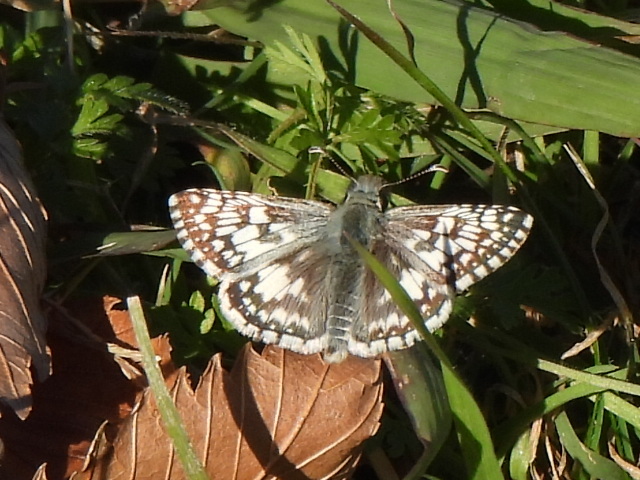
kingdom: Animalia
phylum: Arthropoda
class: Insecta
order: Lepidoptera
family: Hesperiidae
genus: Burnsius
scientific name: Burnsius
